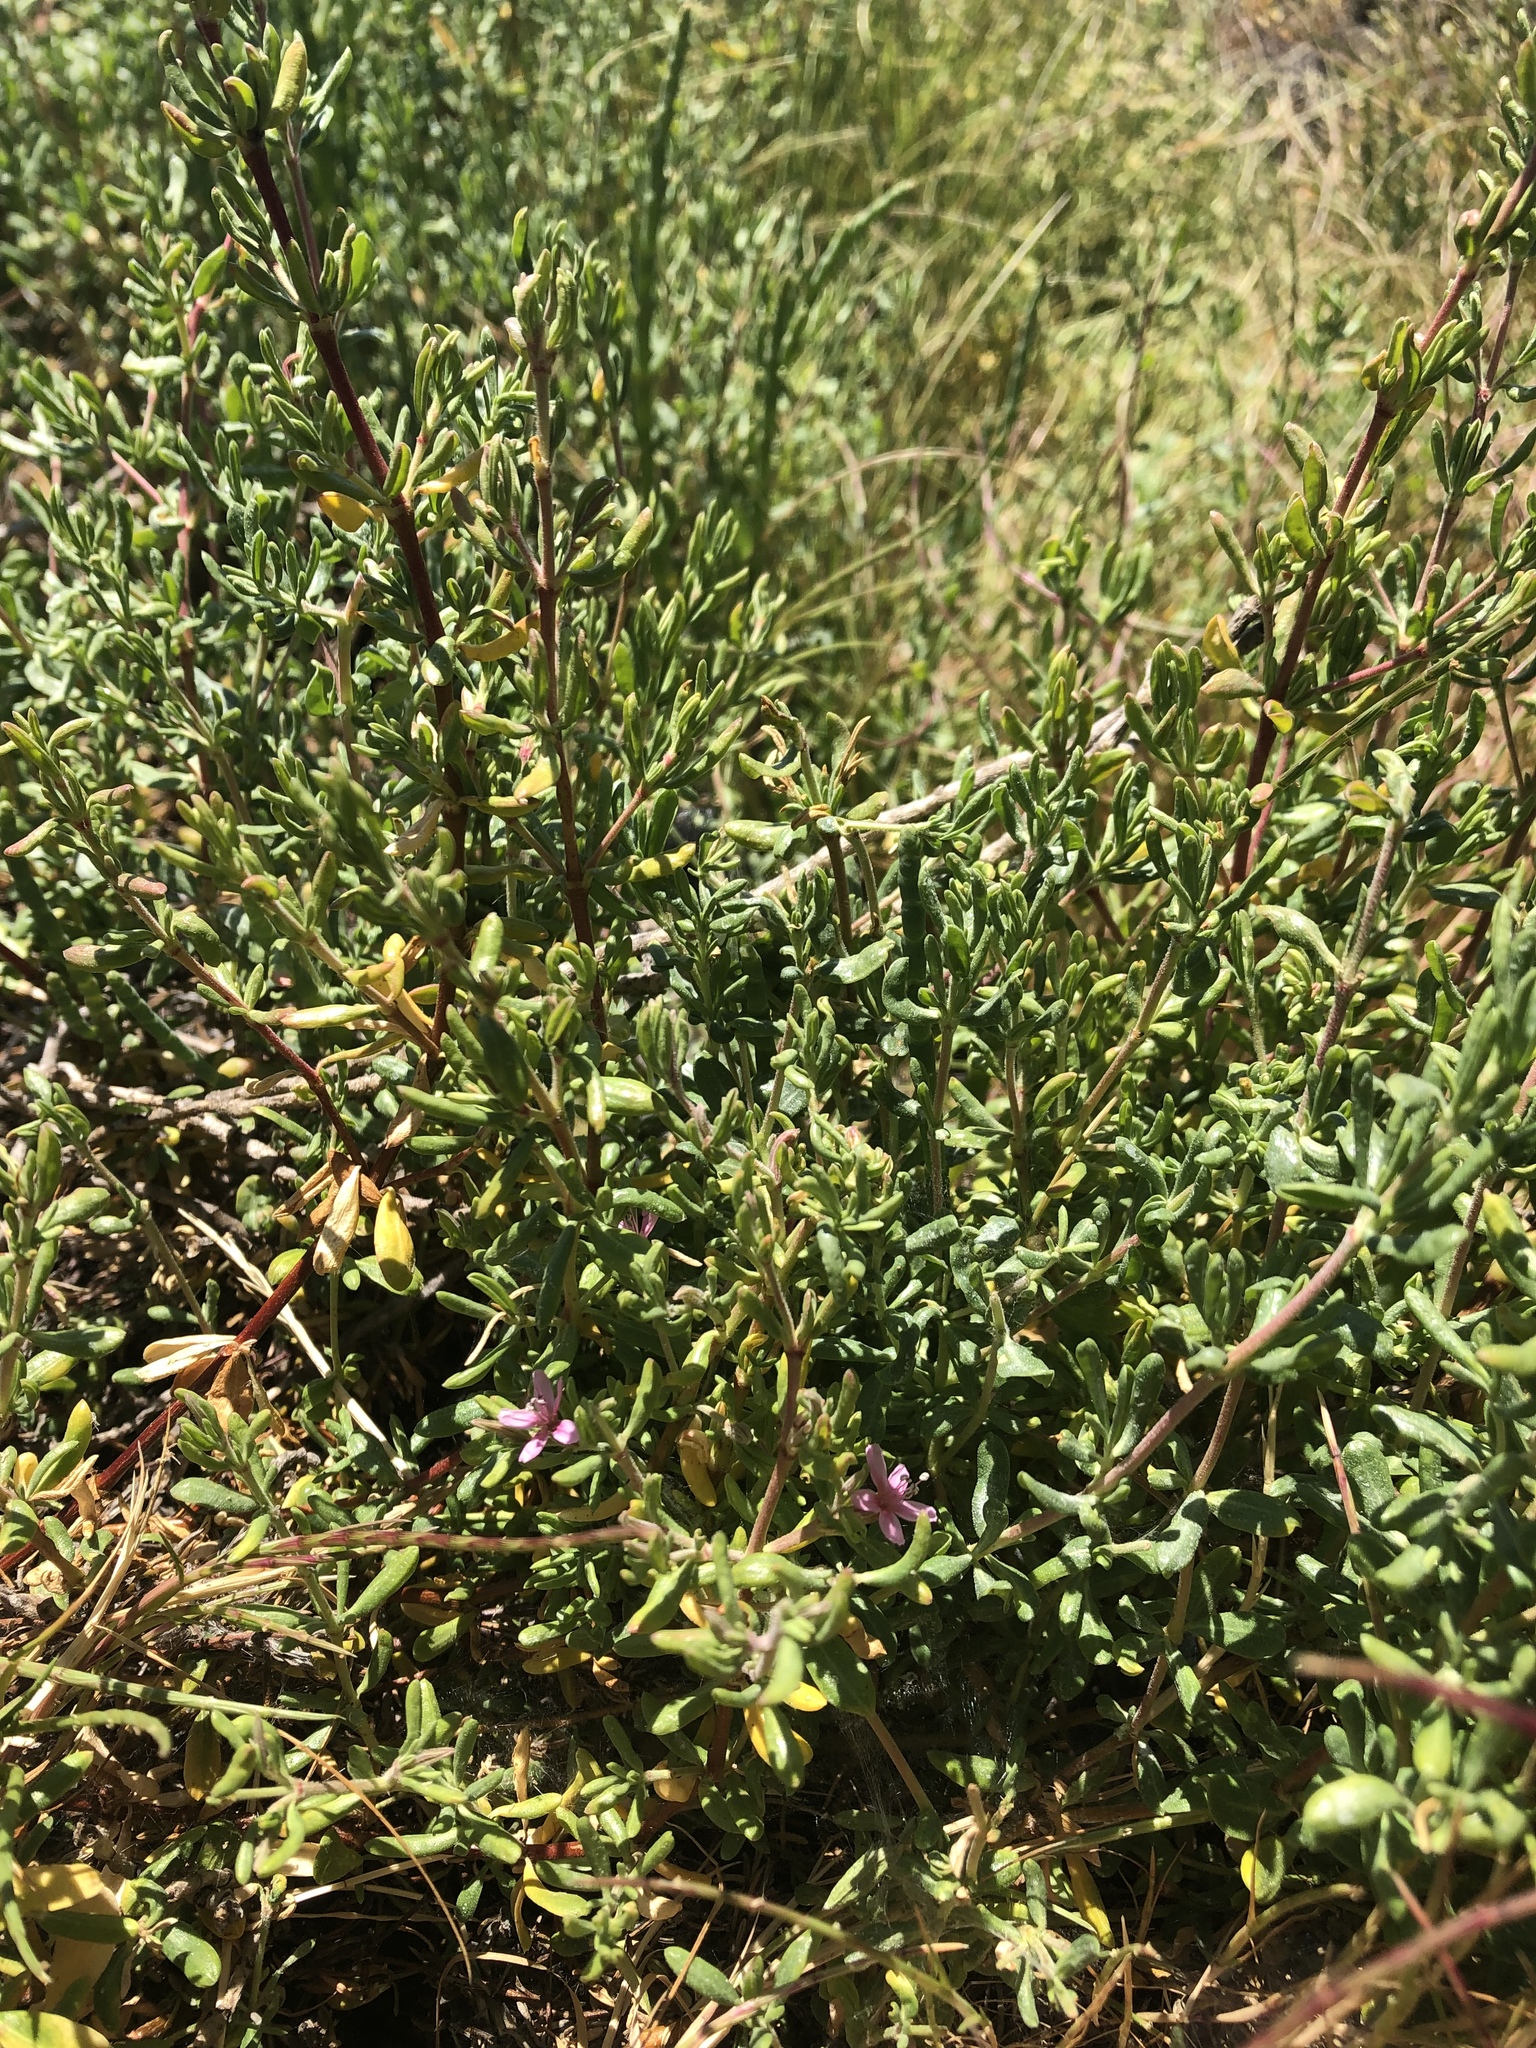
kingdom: Plantae
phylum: Tracheophyta
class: Magnoliopsida
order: Caryophyllales
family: Frankeniaceae
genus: Frankenia
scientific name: Frankenia salina
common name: Alkali seaheath
